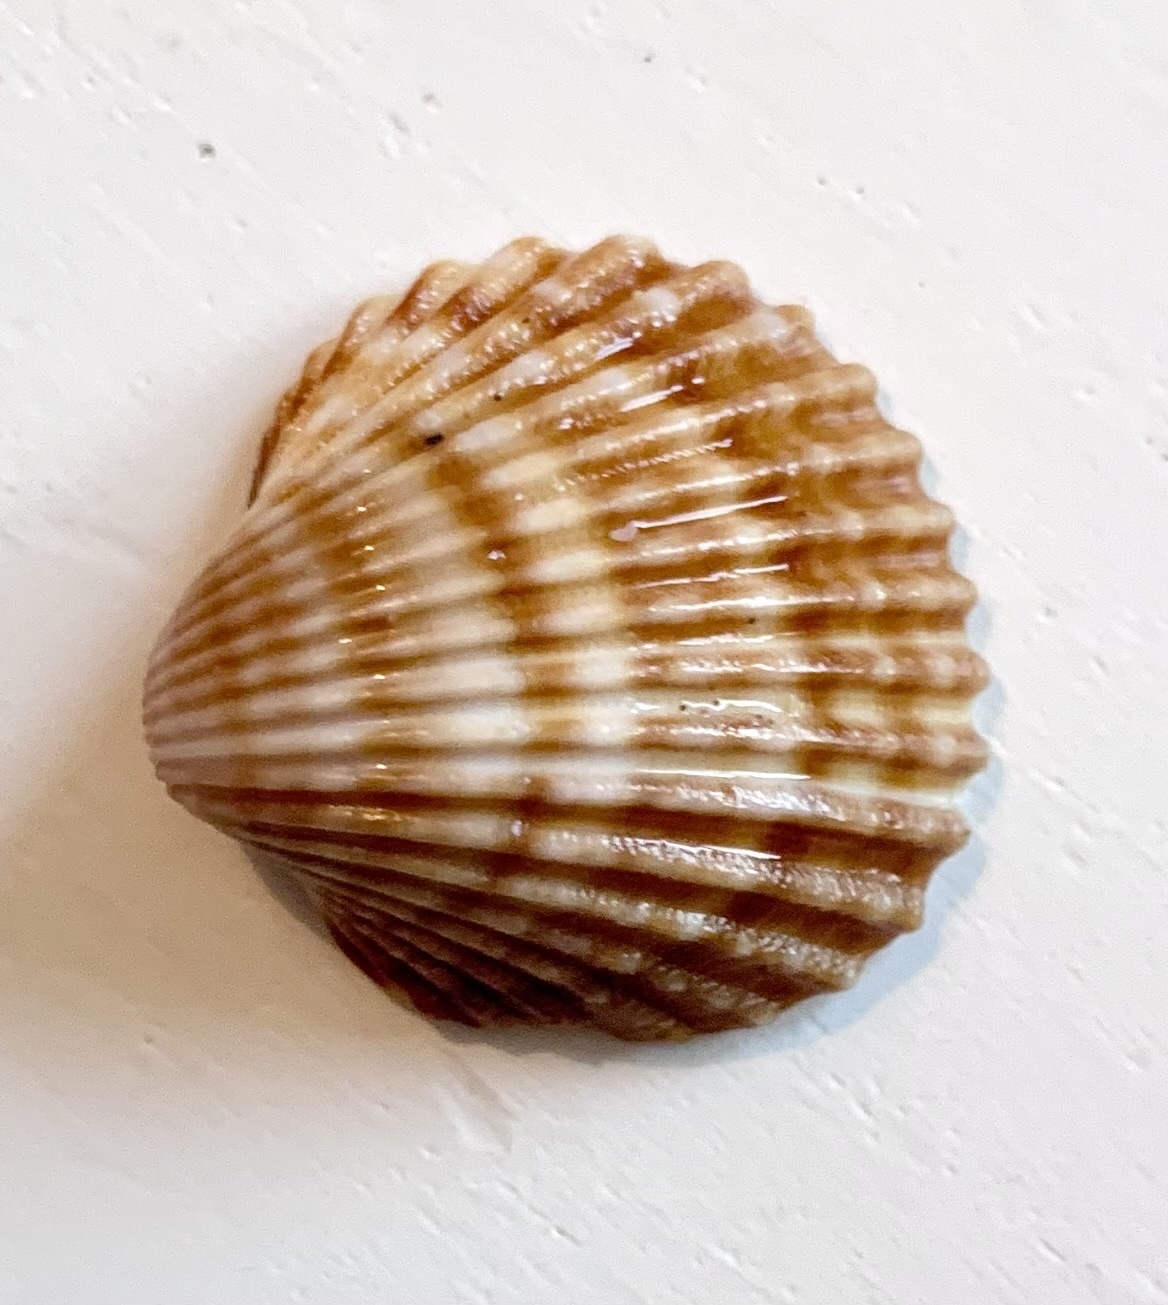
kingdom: Animalia
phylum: Mollusca
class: Bivalvia
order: Cardiida
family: Cardiidae
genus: Acanthocardia
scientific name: Acanthocardia tuberculata
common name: Rough cockle
